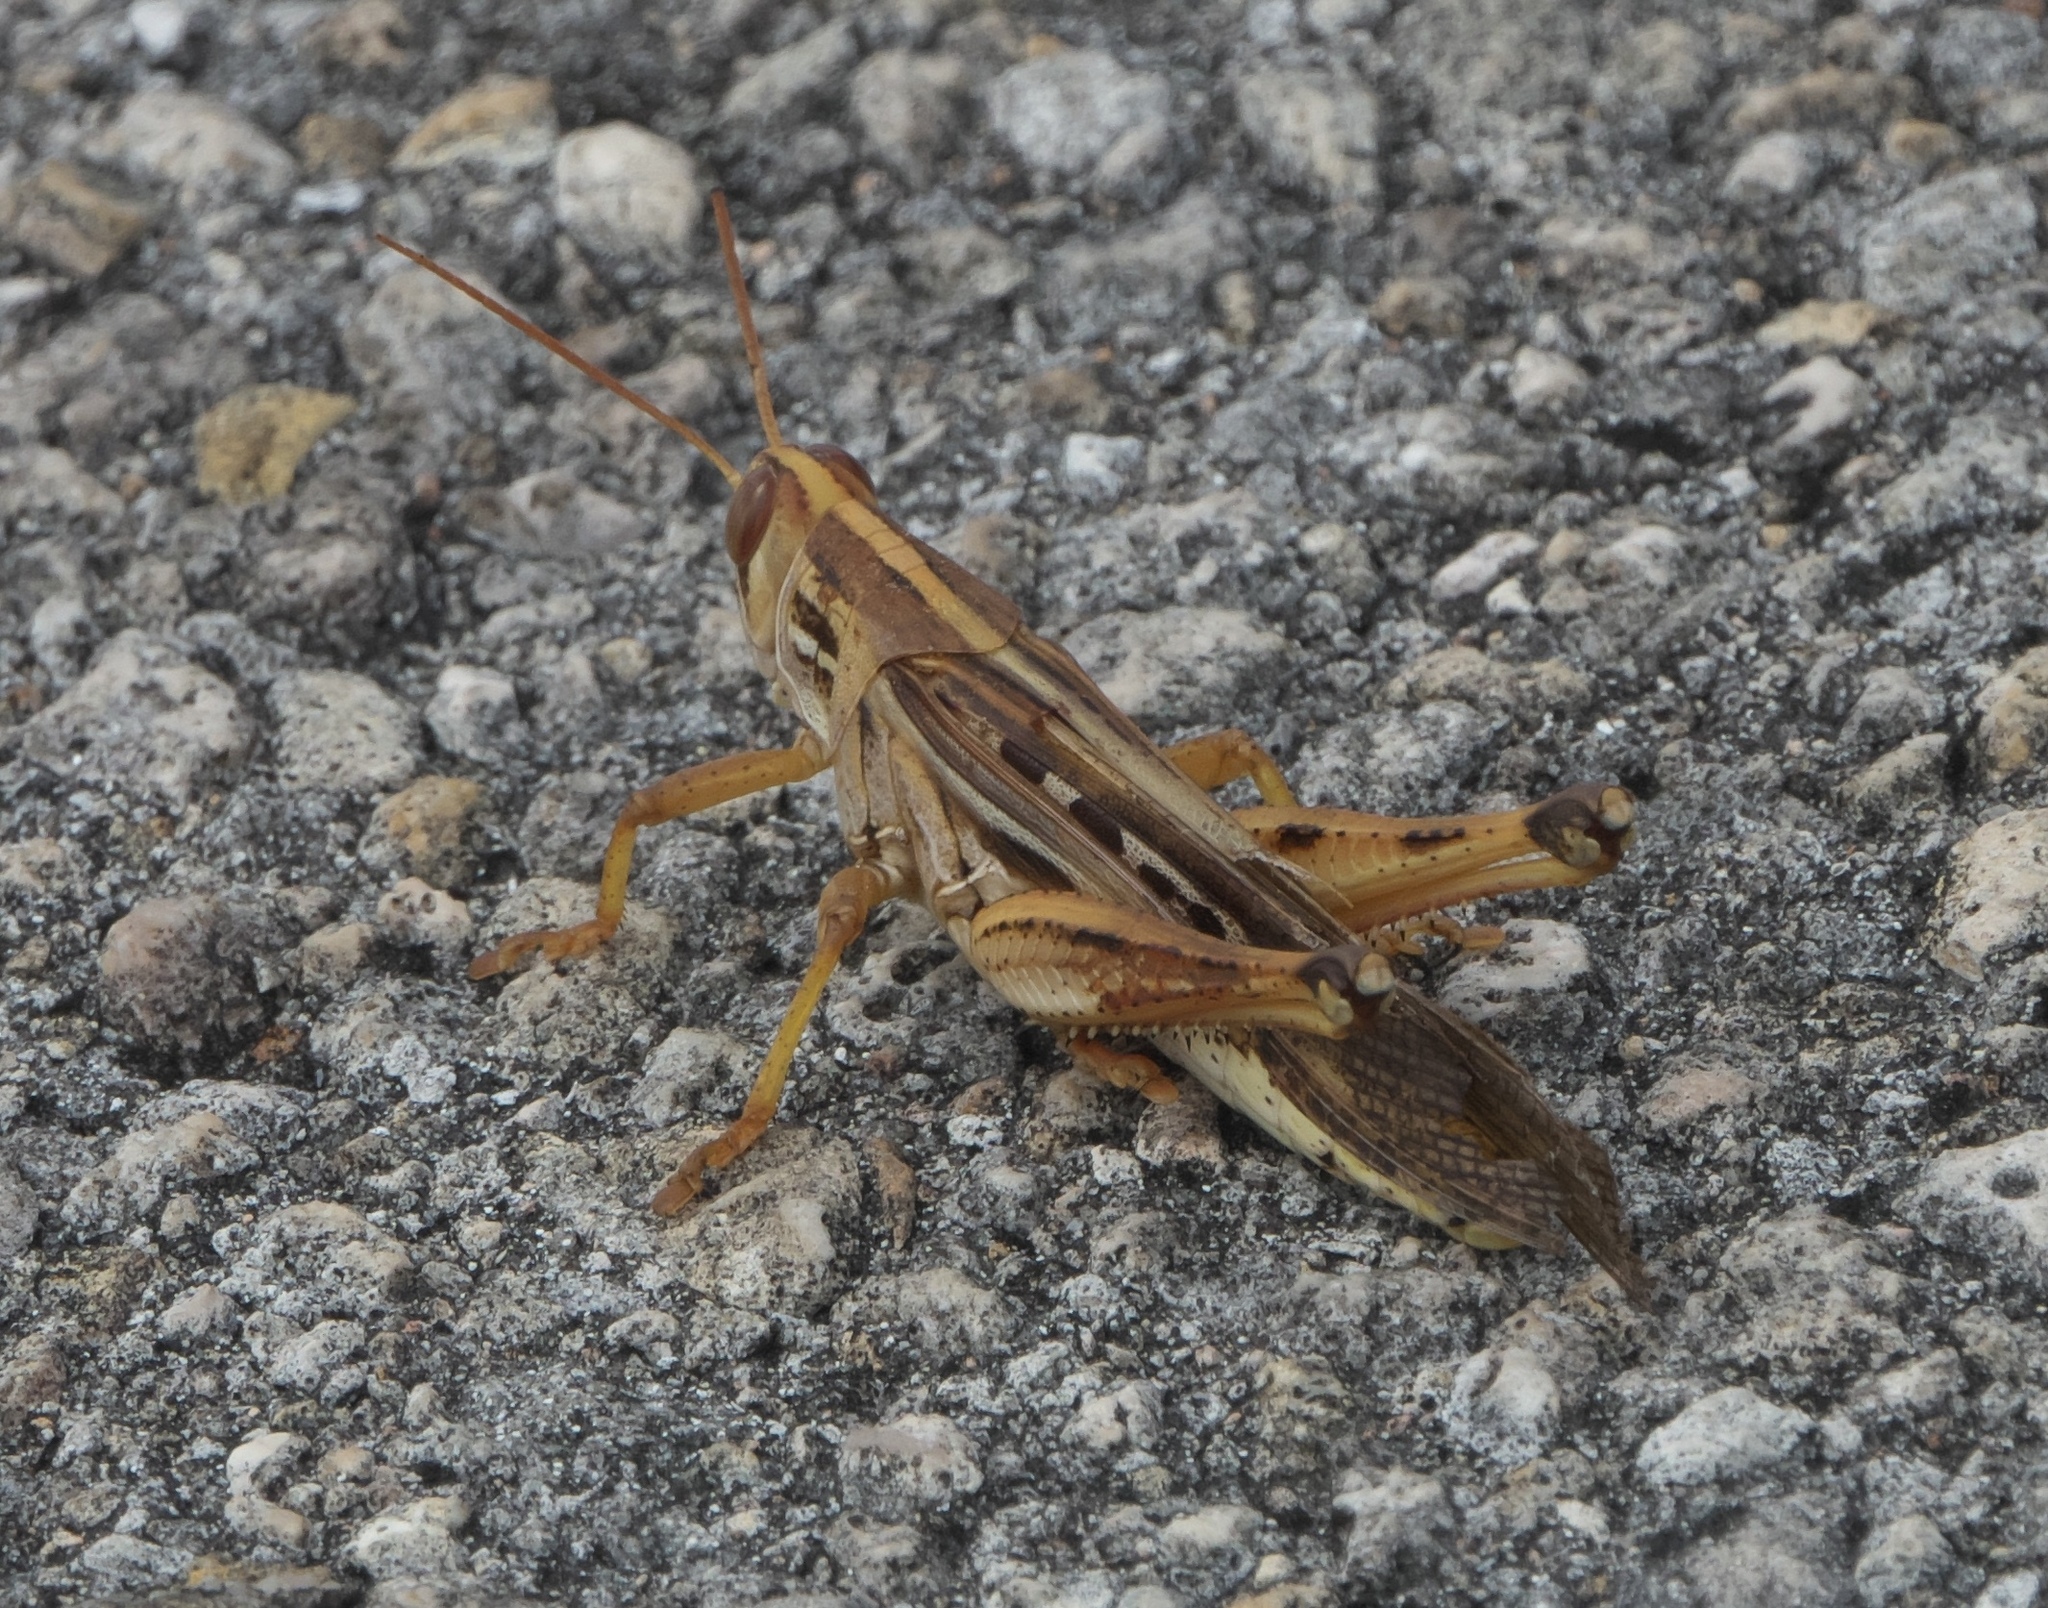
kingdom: Animalia
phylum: Arthropoda
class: Insecta
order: Orthoptera
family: Acrididae
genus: Schistocerca
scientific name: Schistocerca americana
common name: American bird locust
